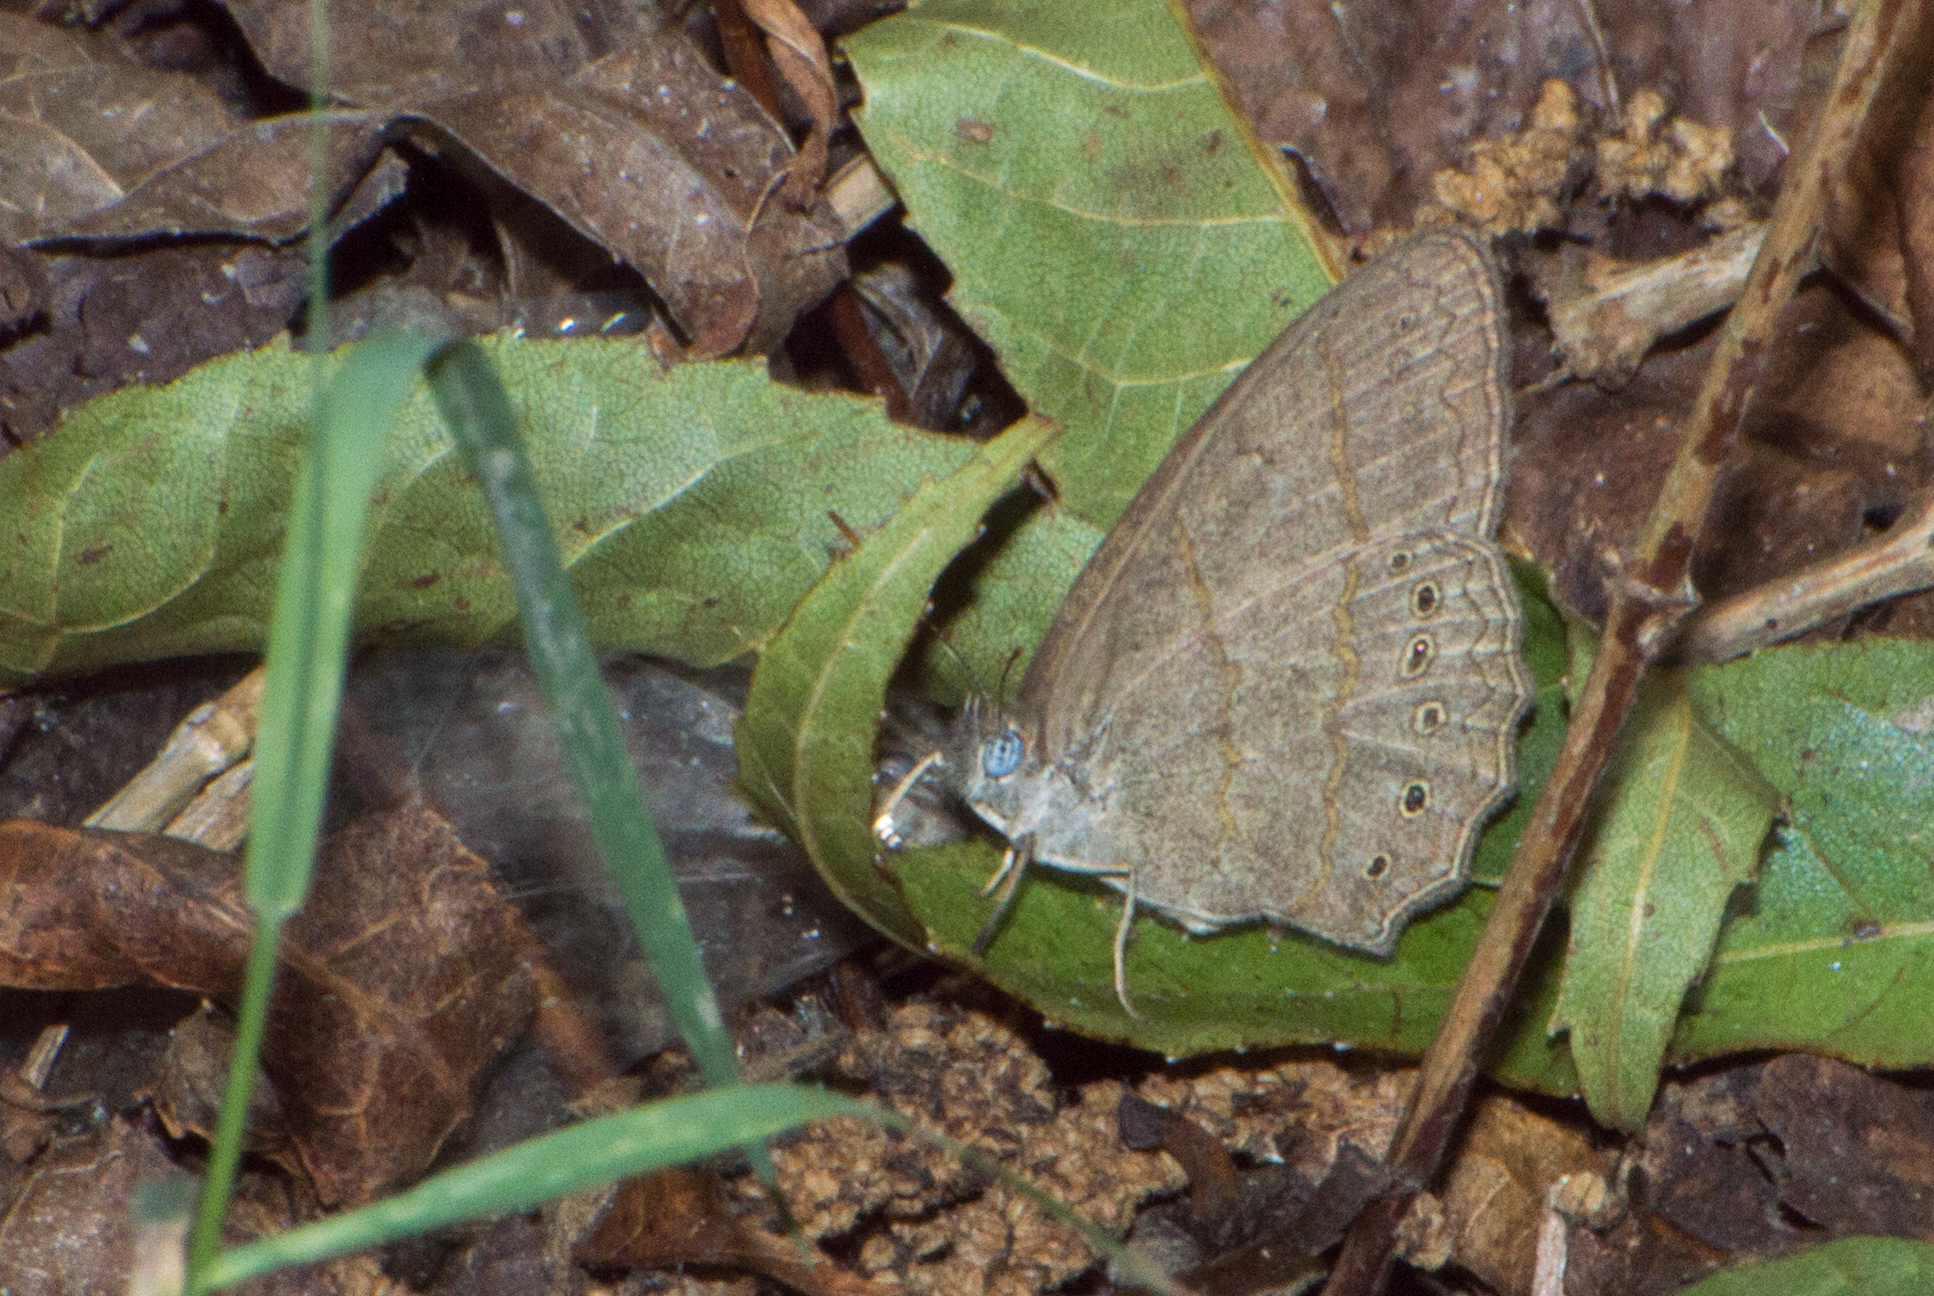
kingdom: Animalia
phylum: Arthropoda
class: Insecta
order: Lepidoptera
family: Nymphalidae
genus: Paryphthimoides
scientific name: Paryphthimoides poltys
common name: Poltys satyr
